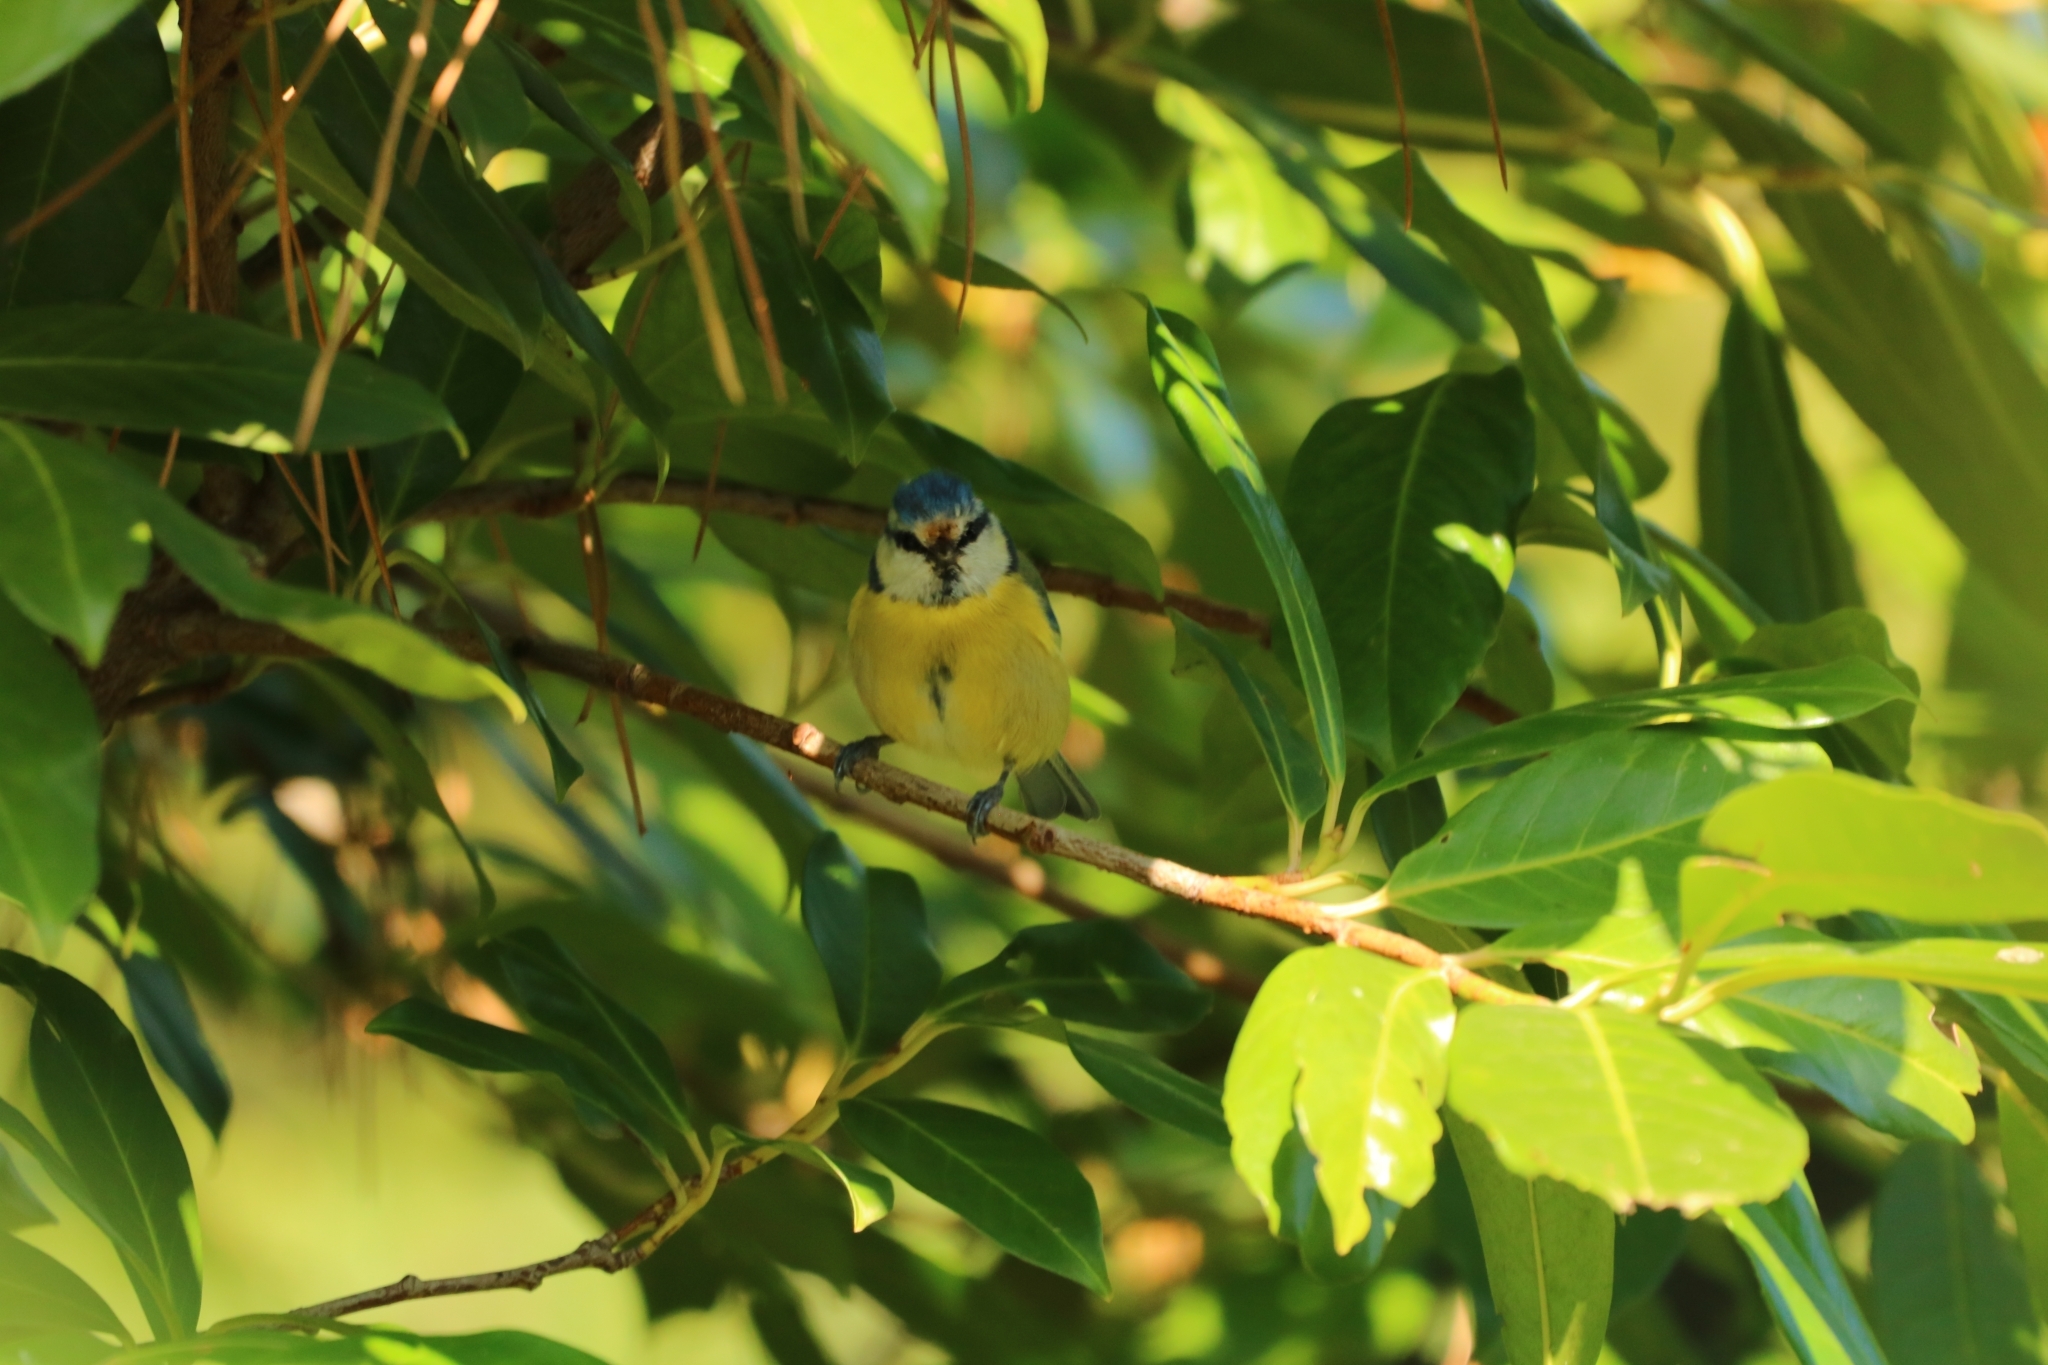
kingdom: Animalia
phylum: Chordata
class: Aves
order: Passeriformes
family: Paridae
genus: Cyanistes
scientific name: Cyanistes caeruleus
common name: Eurasian blue tit
